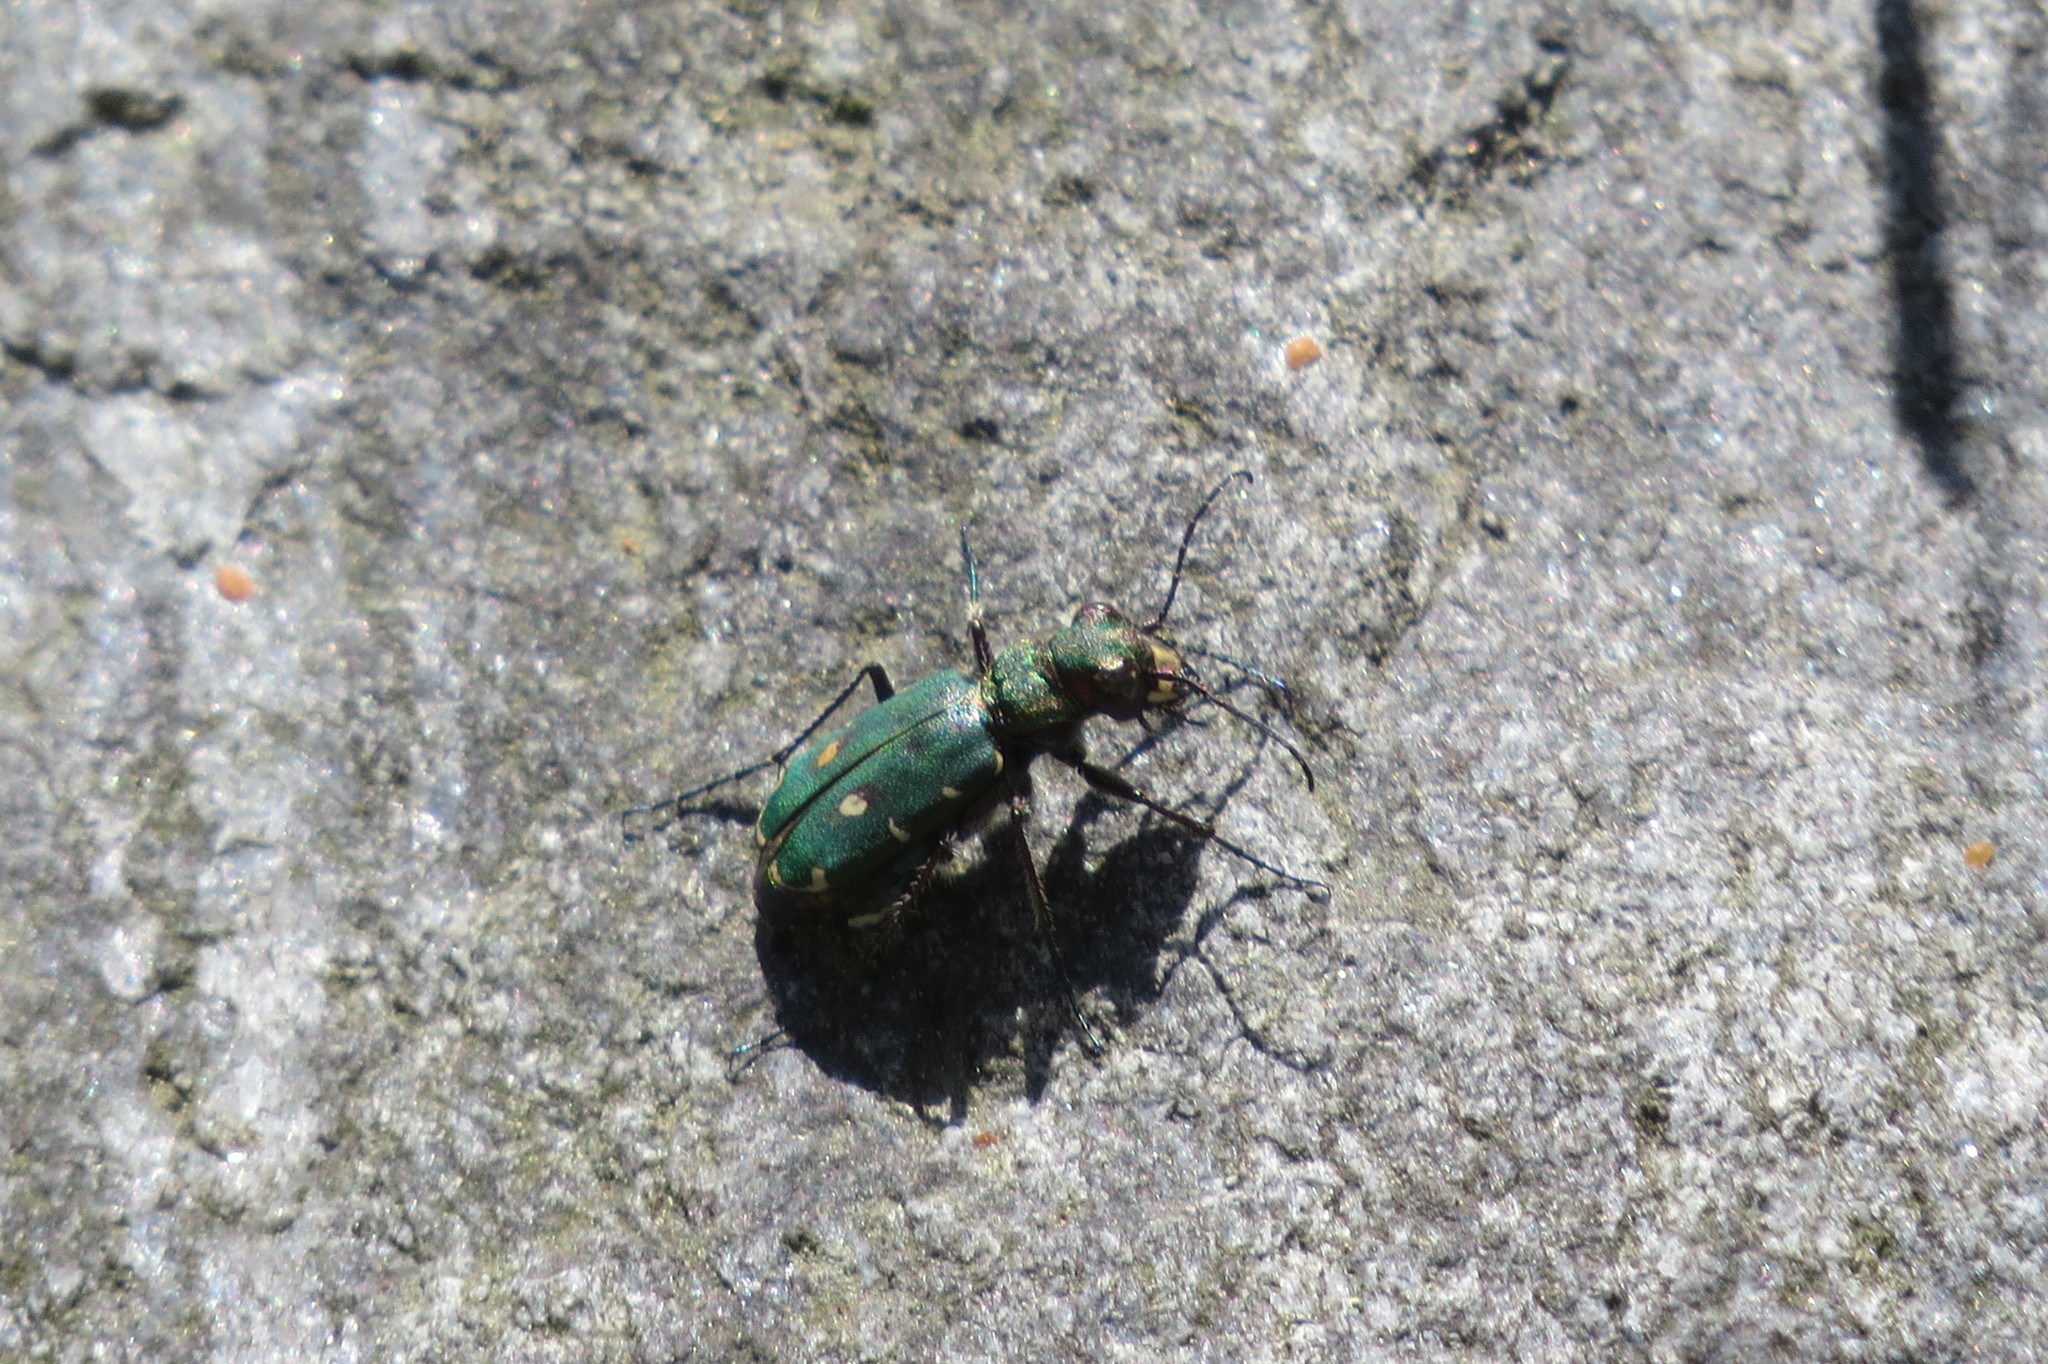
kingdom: Animalia
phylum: Arthropoda
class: Insecta
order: Coleoptera
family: Carabidae
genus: Cicindela
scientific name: Cicindela campestris
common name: Common tiger beetle
